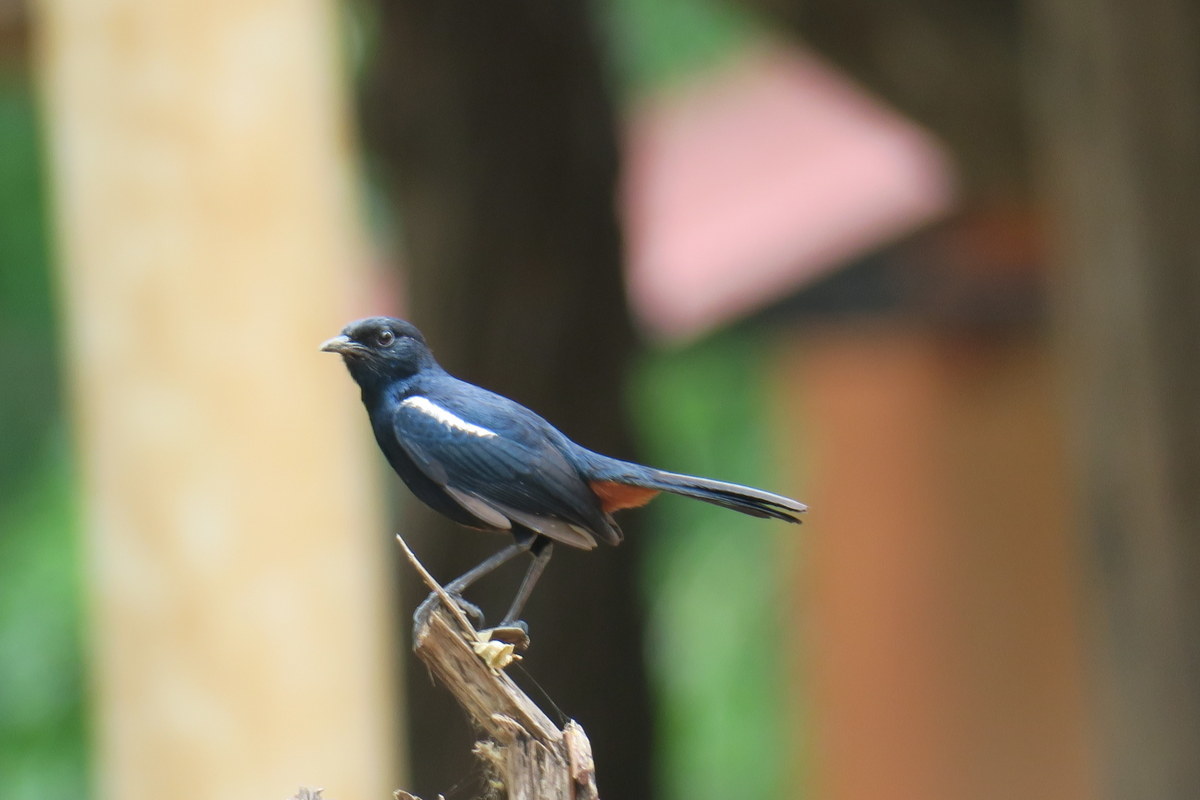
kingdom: Animalia
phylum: Chordata
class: Aves
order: Passeriformes
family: Muscicapidae
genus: Saxicoloides
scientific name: Saxicoloides fulicatus
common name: Indian robin
